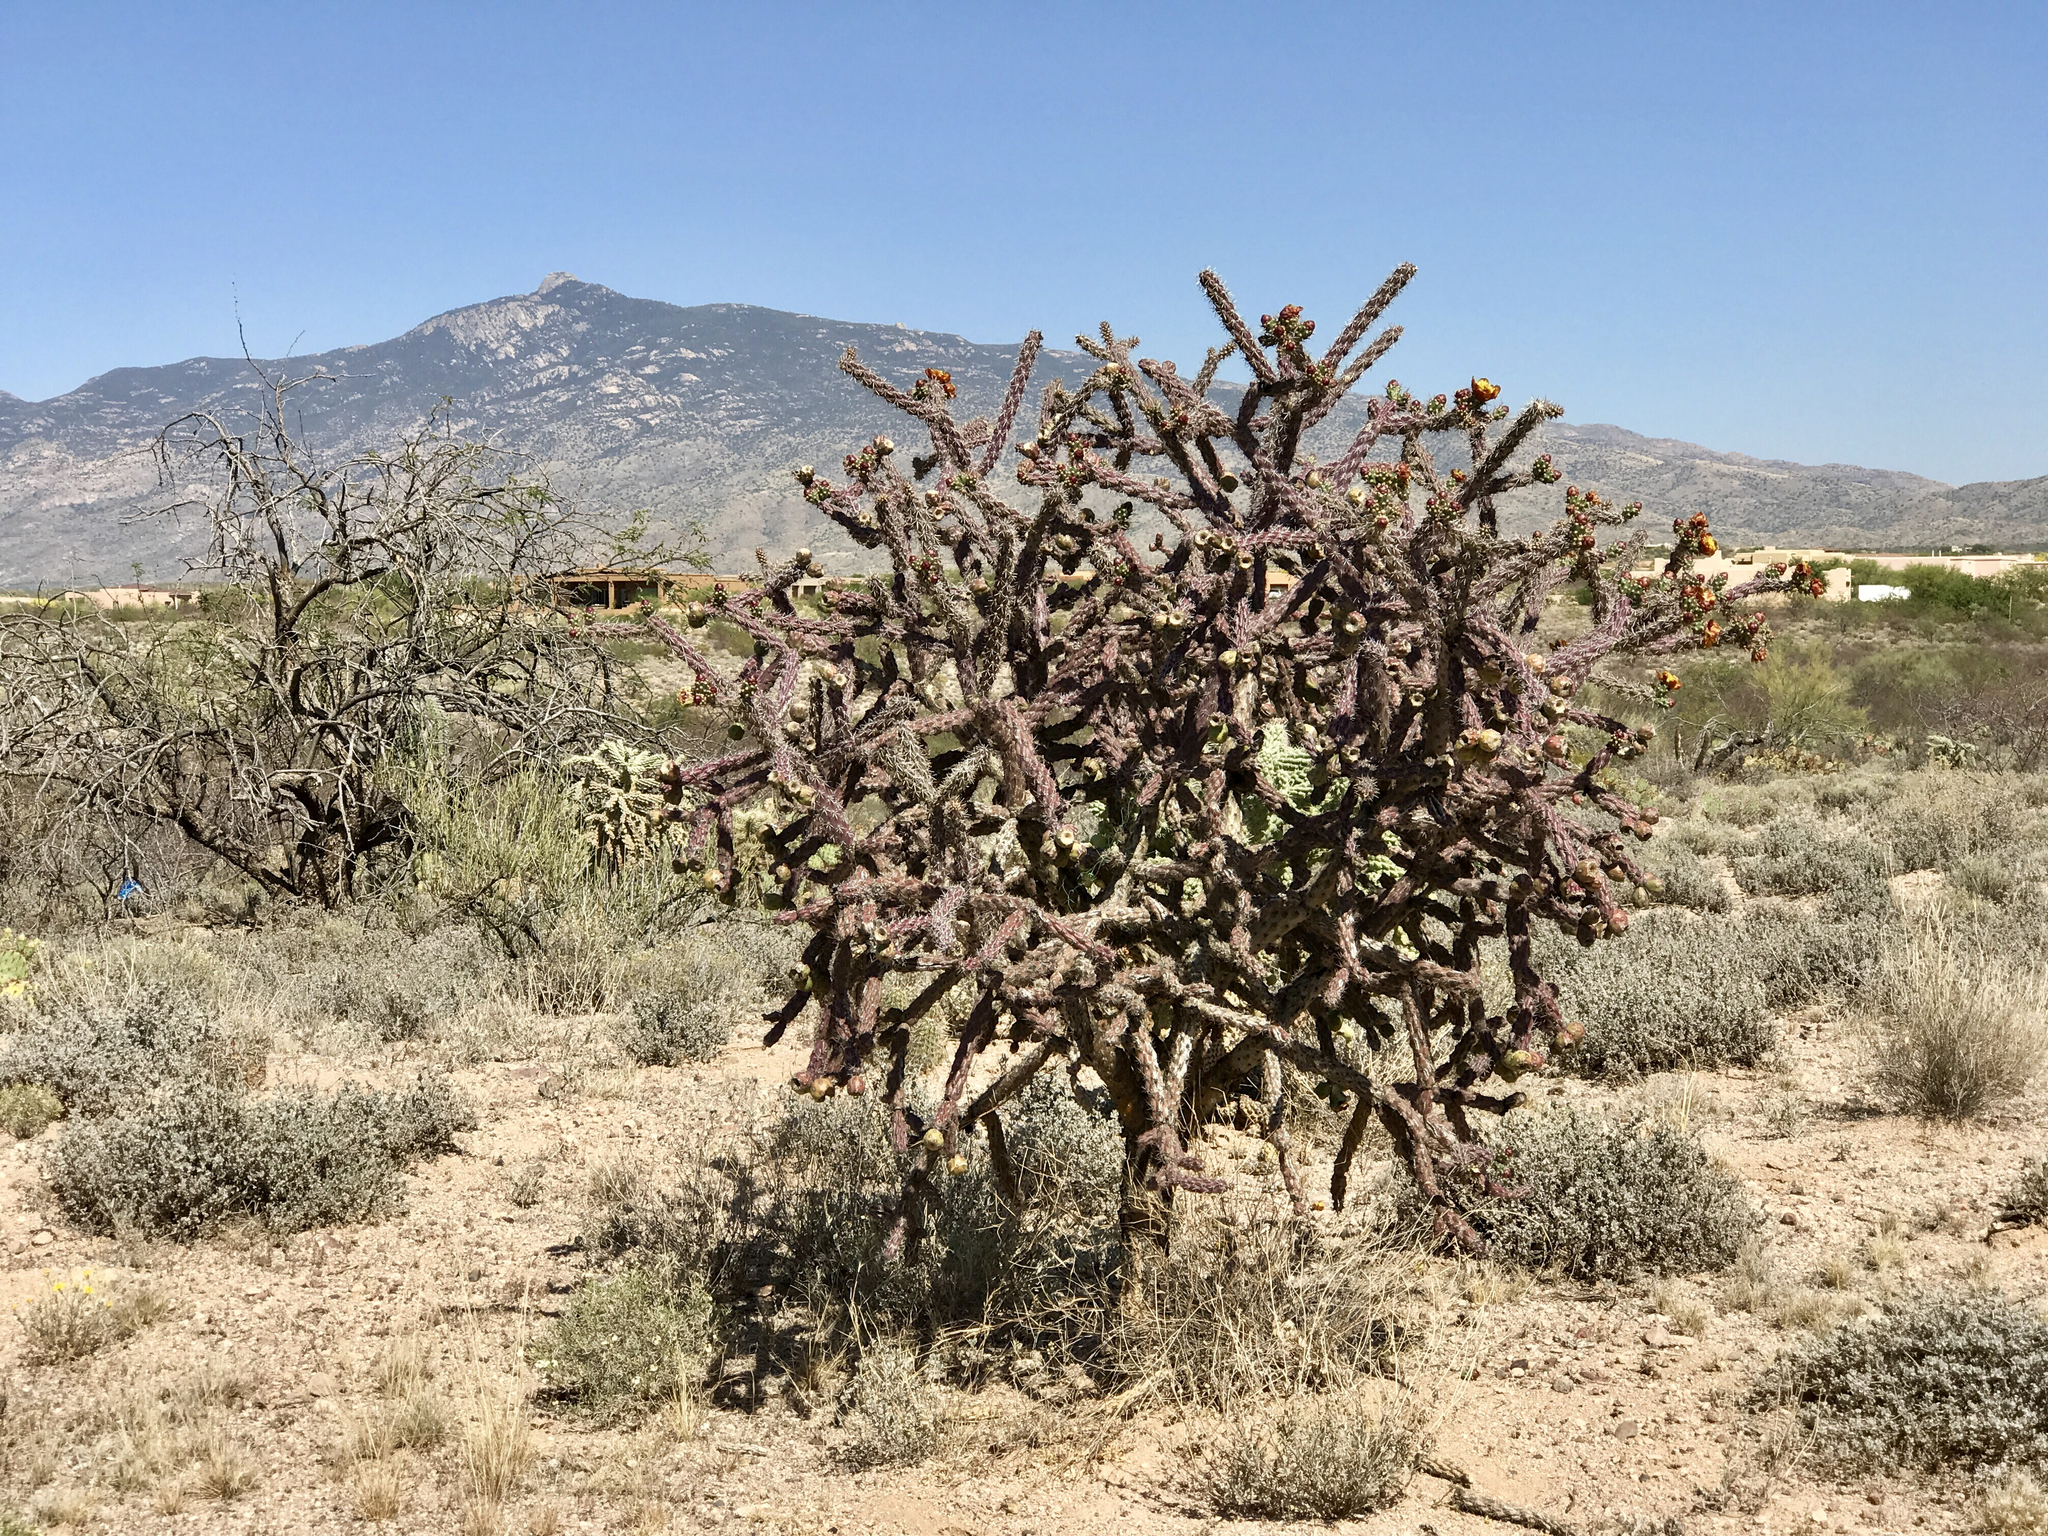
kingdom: Plantae
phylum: Tracheophyta
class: Magnoliopsida
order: Caryophyllales
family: Cactaceae
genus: Cylindropuntia
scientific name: Cylindropuntia thurberi
